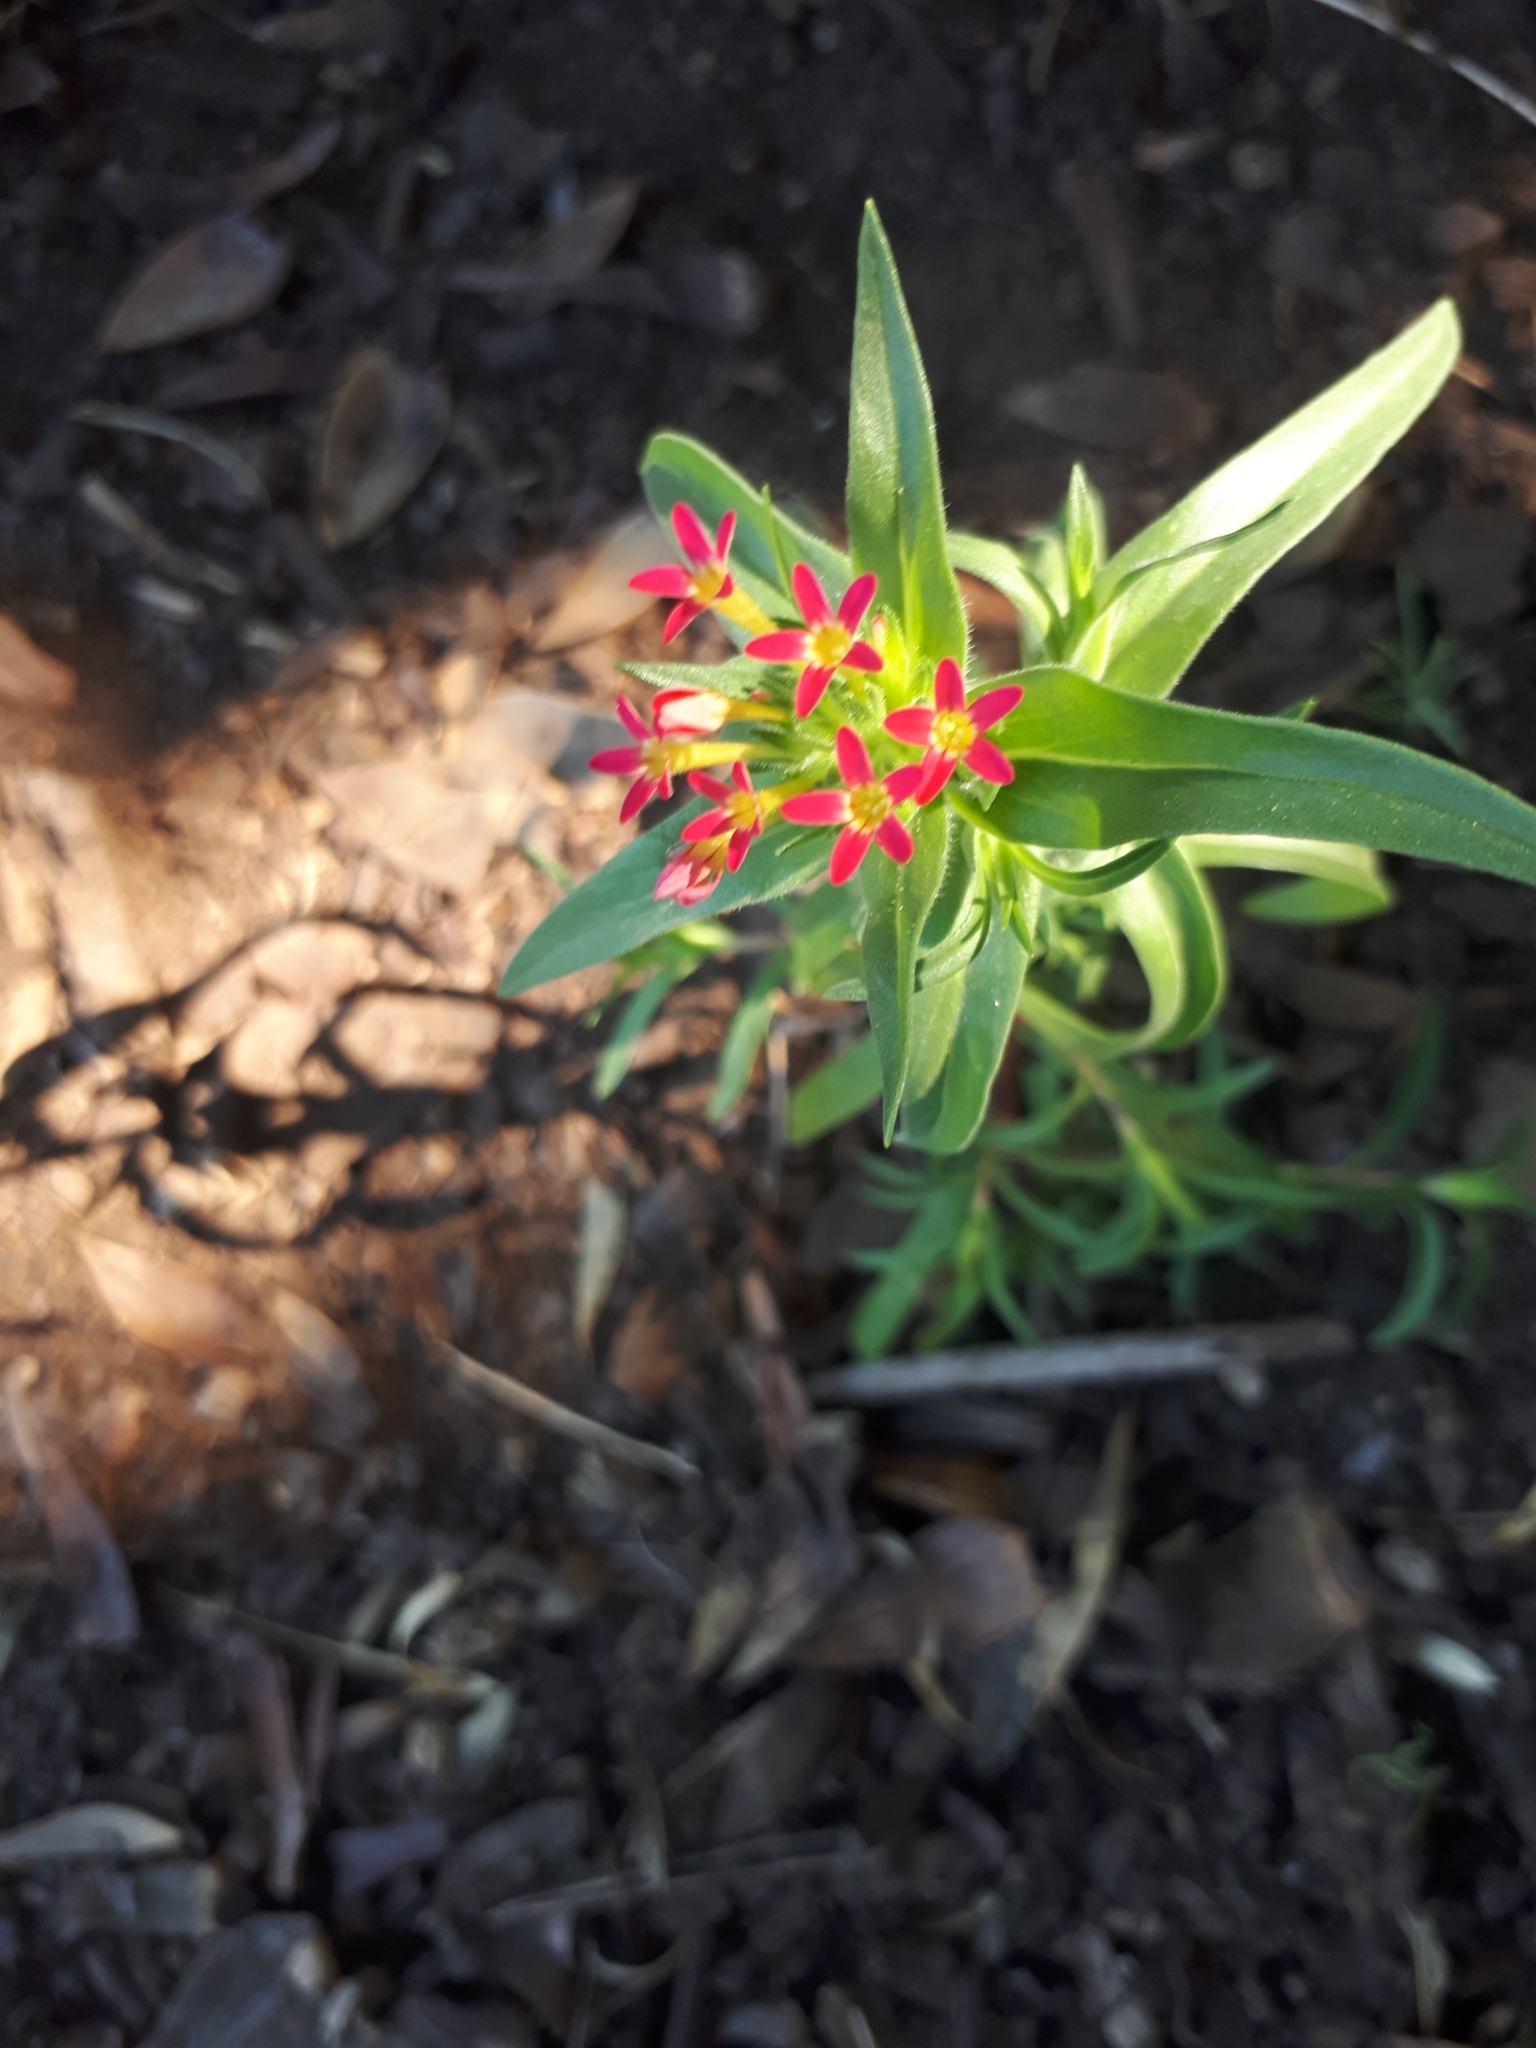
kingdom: Plantae
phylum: Tracheophyta
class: Magnoliopsida
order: Ericales
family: Polemoniaceae
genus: Collomia
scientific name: Collomia biflora
